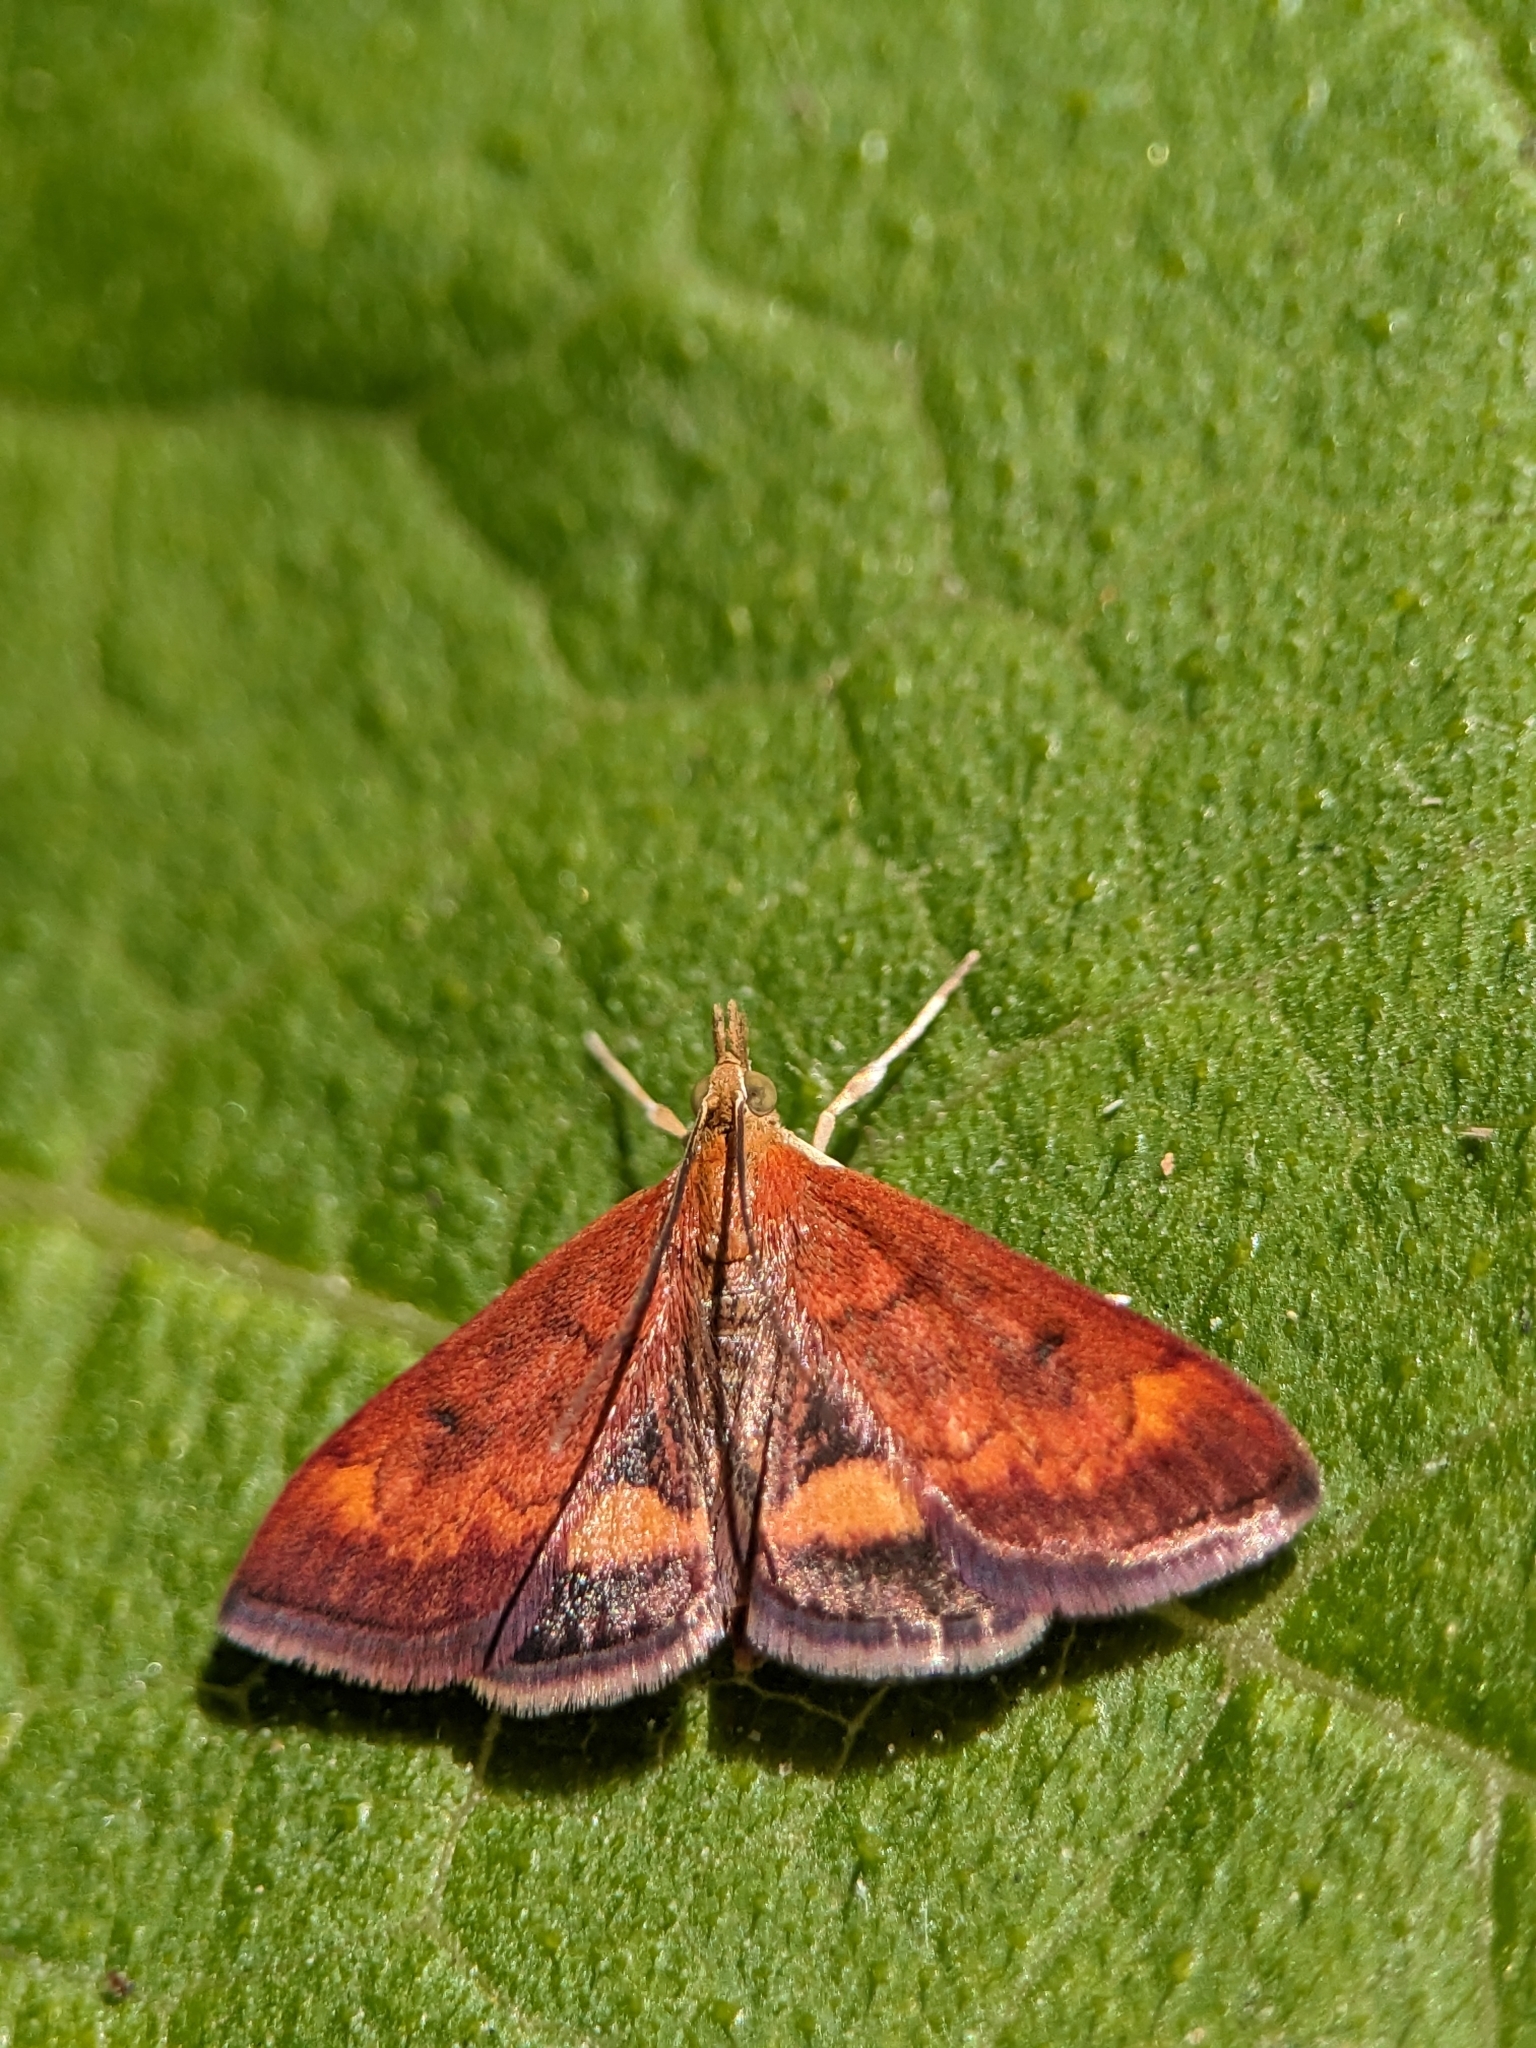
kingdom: Animalia
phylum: Arthropoda
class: Insecta
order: Lepidoptera
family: Crambidae
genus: Pyrausta
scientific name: Pyrausta californicalis
